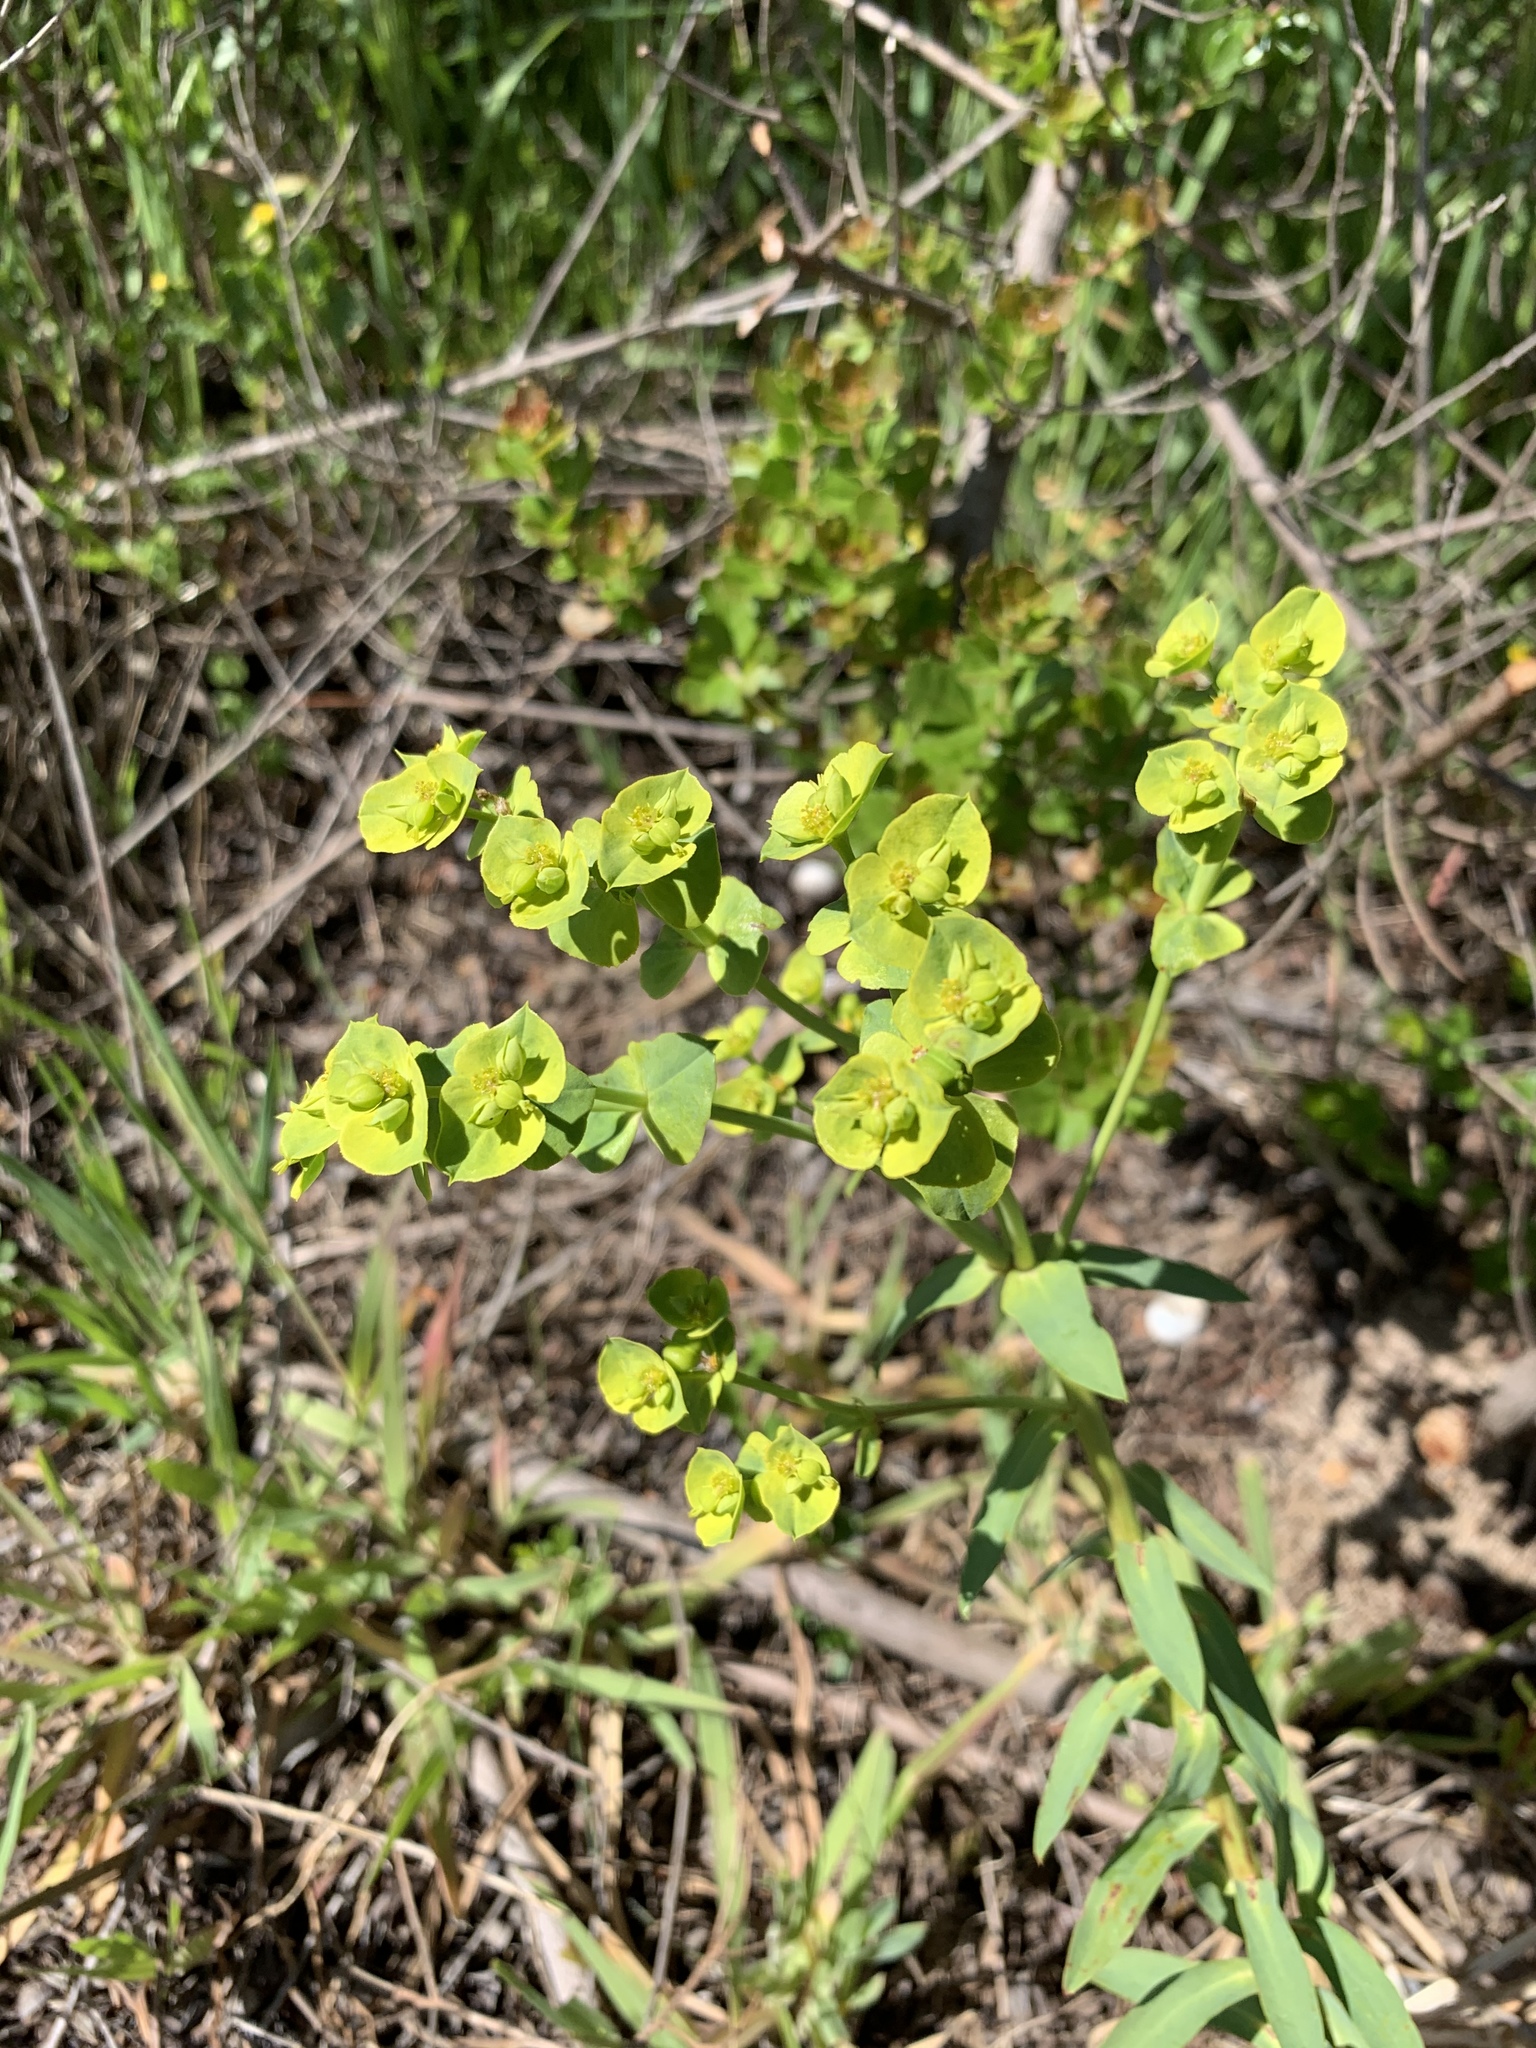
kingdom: Plantae
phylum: Tracheophyta
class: Magnoliopsida
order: Malpighiales
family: Euphorbiaceae
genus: Euphorbia
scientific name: Euphorbia terracina
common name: Geraldton carnation weed
